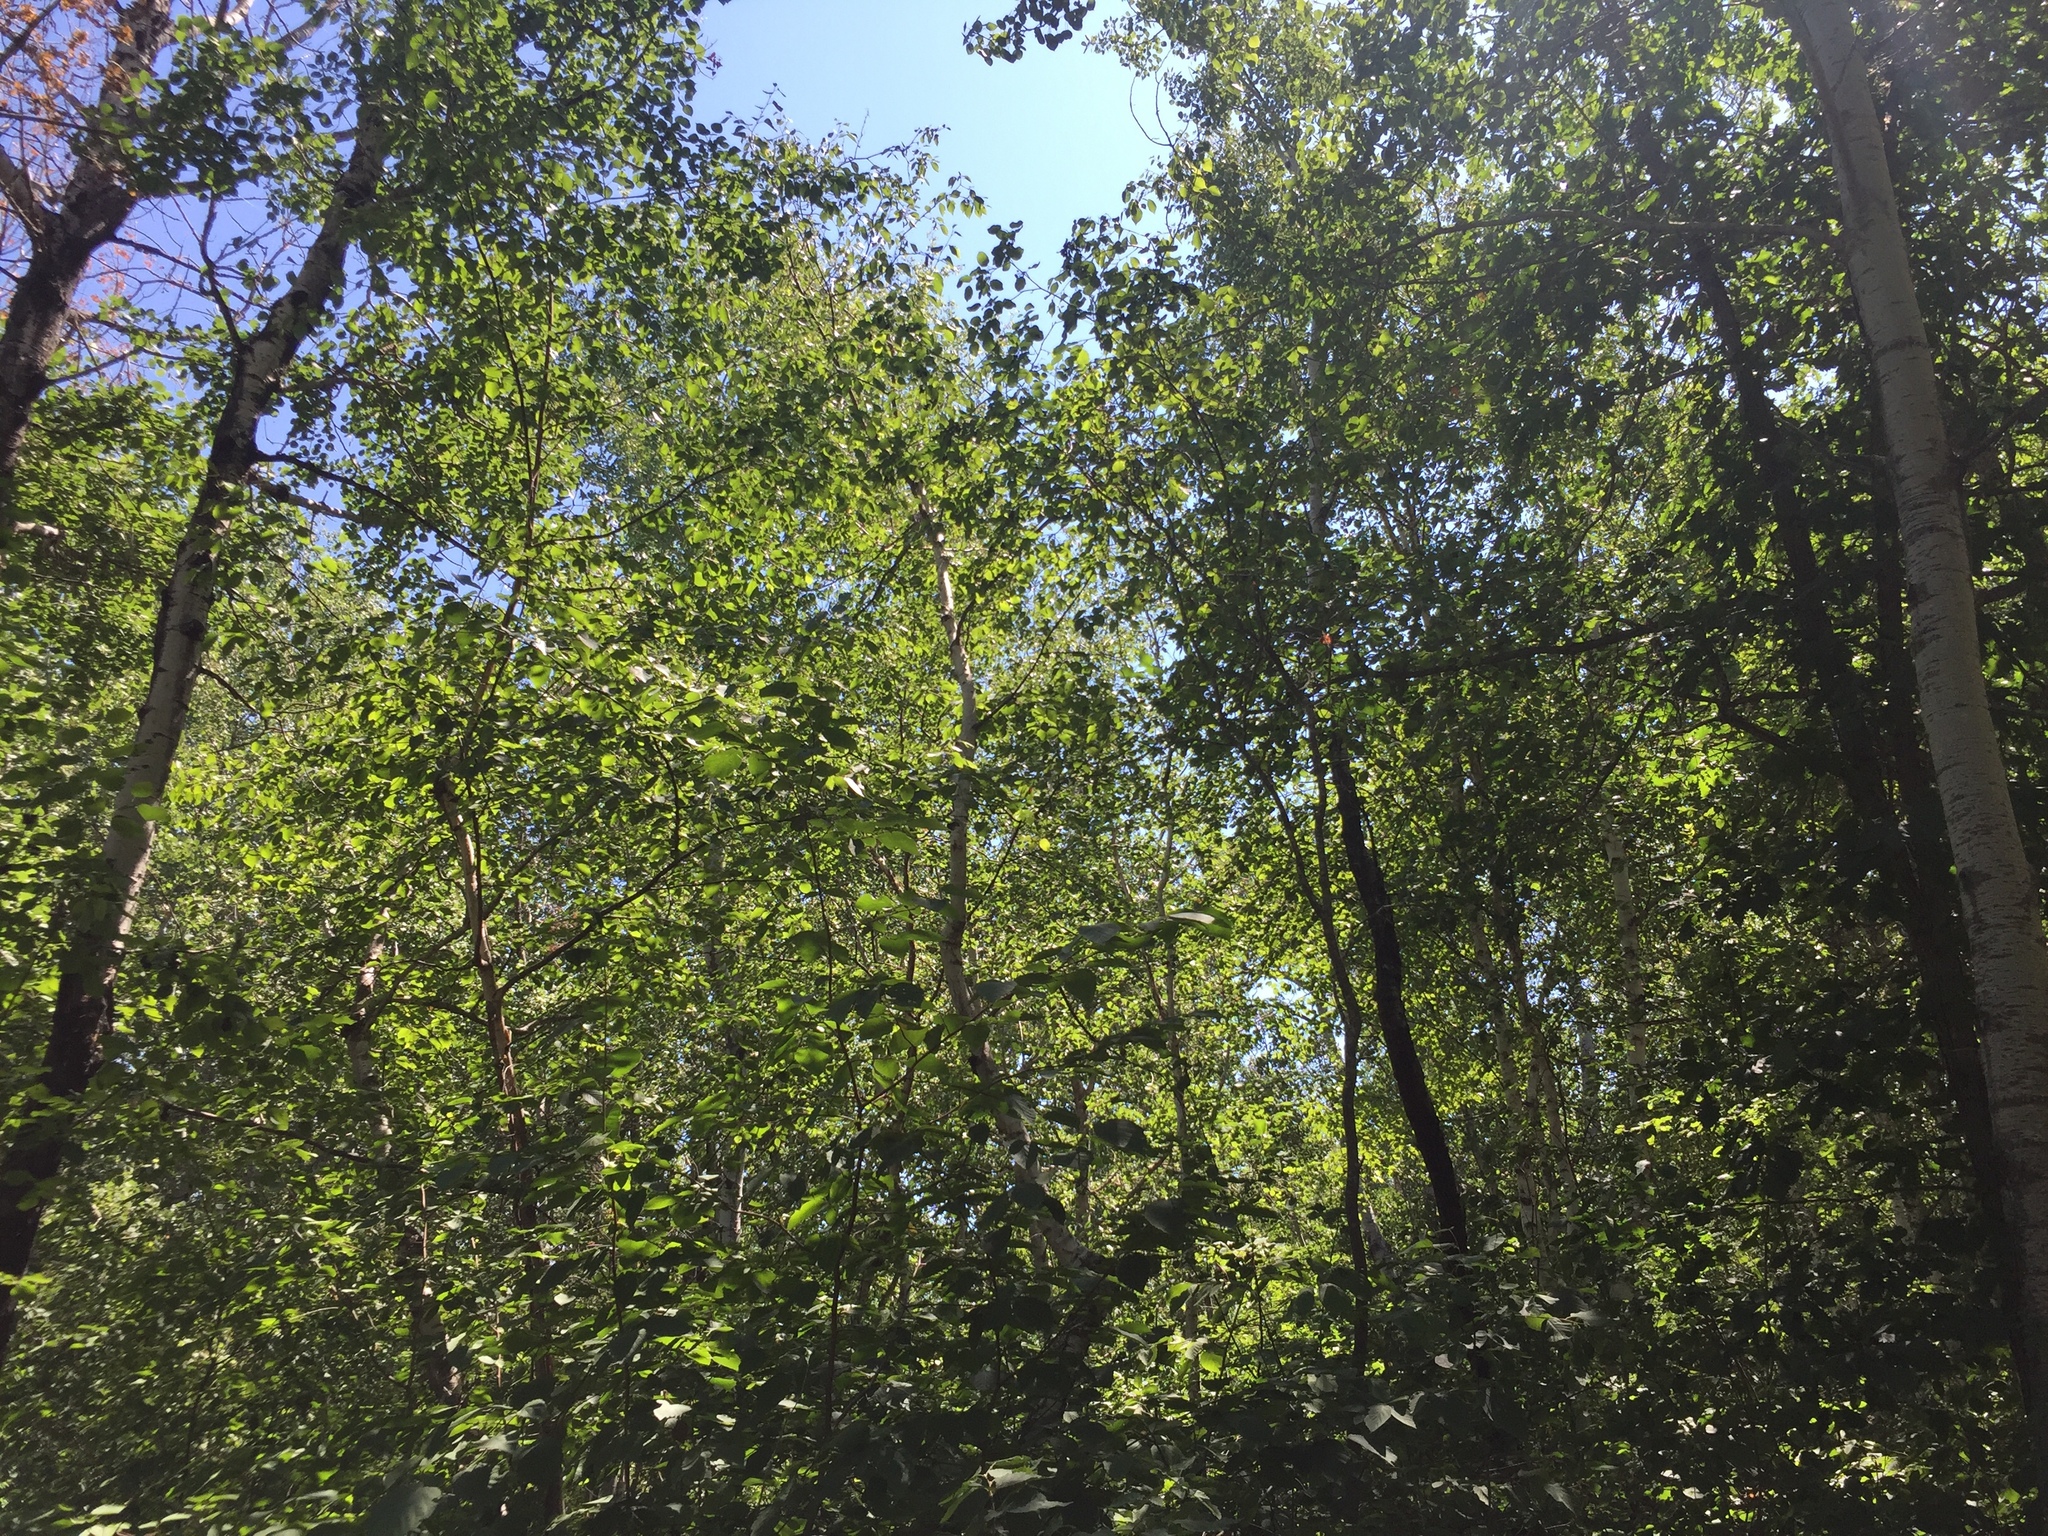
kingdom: Plantae
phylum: Tracheophyta
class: Magnoliopsida
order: Malpighiales
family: Salicaceae
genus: Populus
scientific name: Populus tremuloides
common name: Quaking aspen
